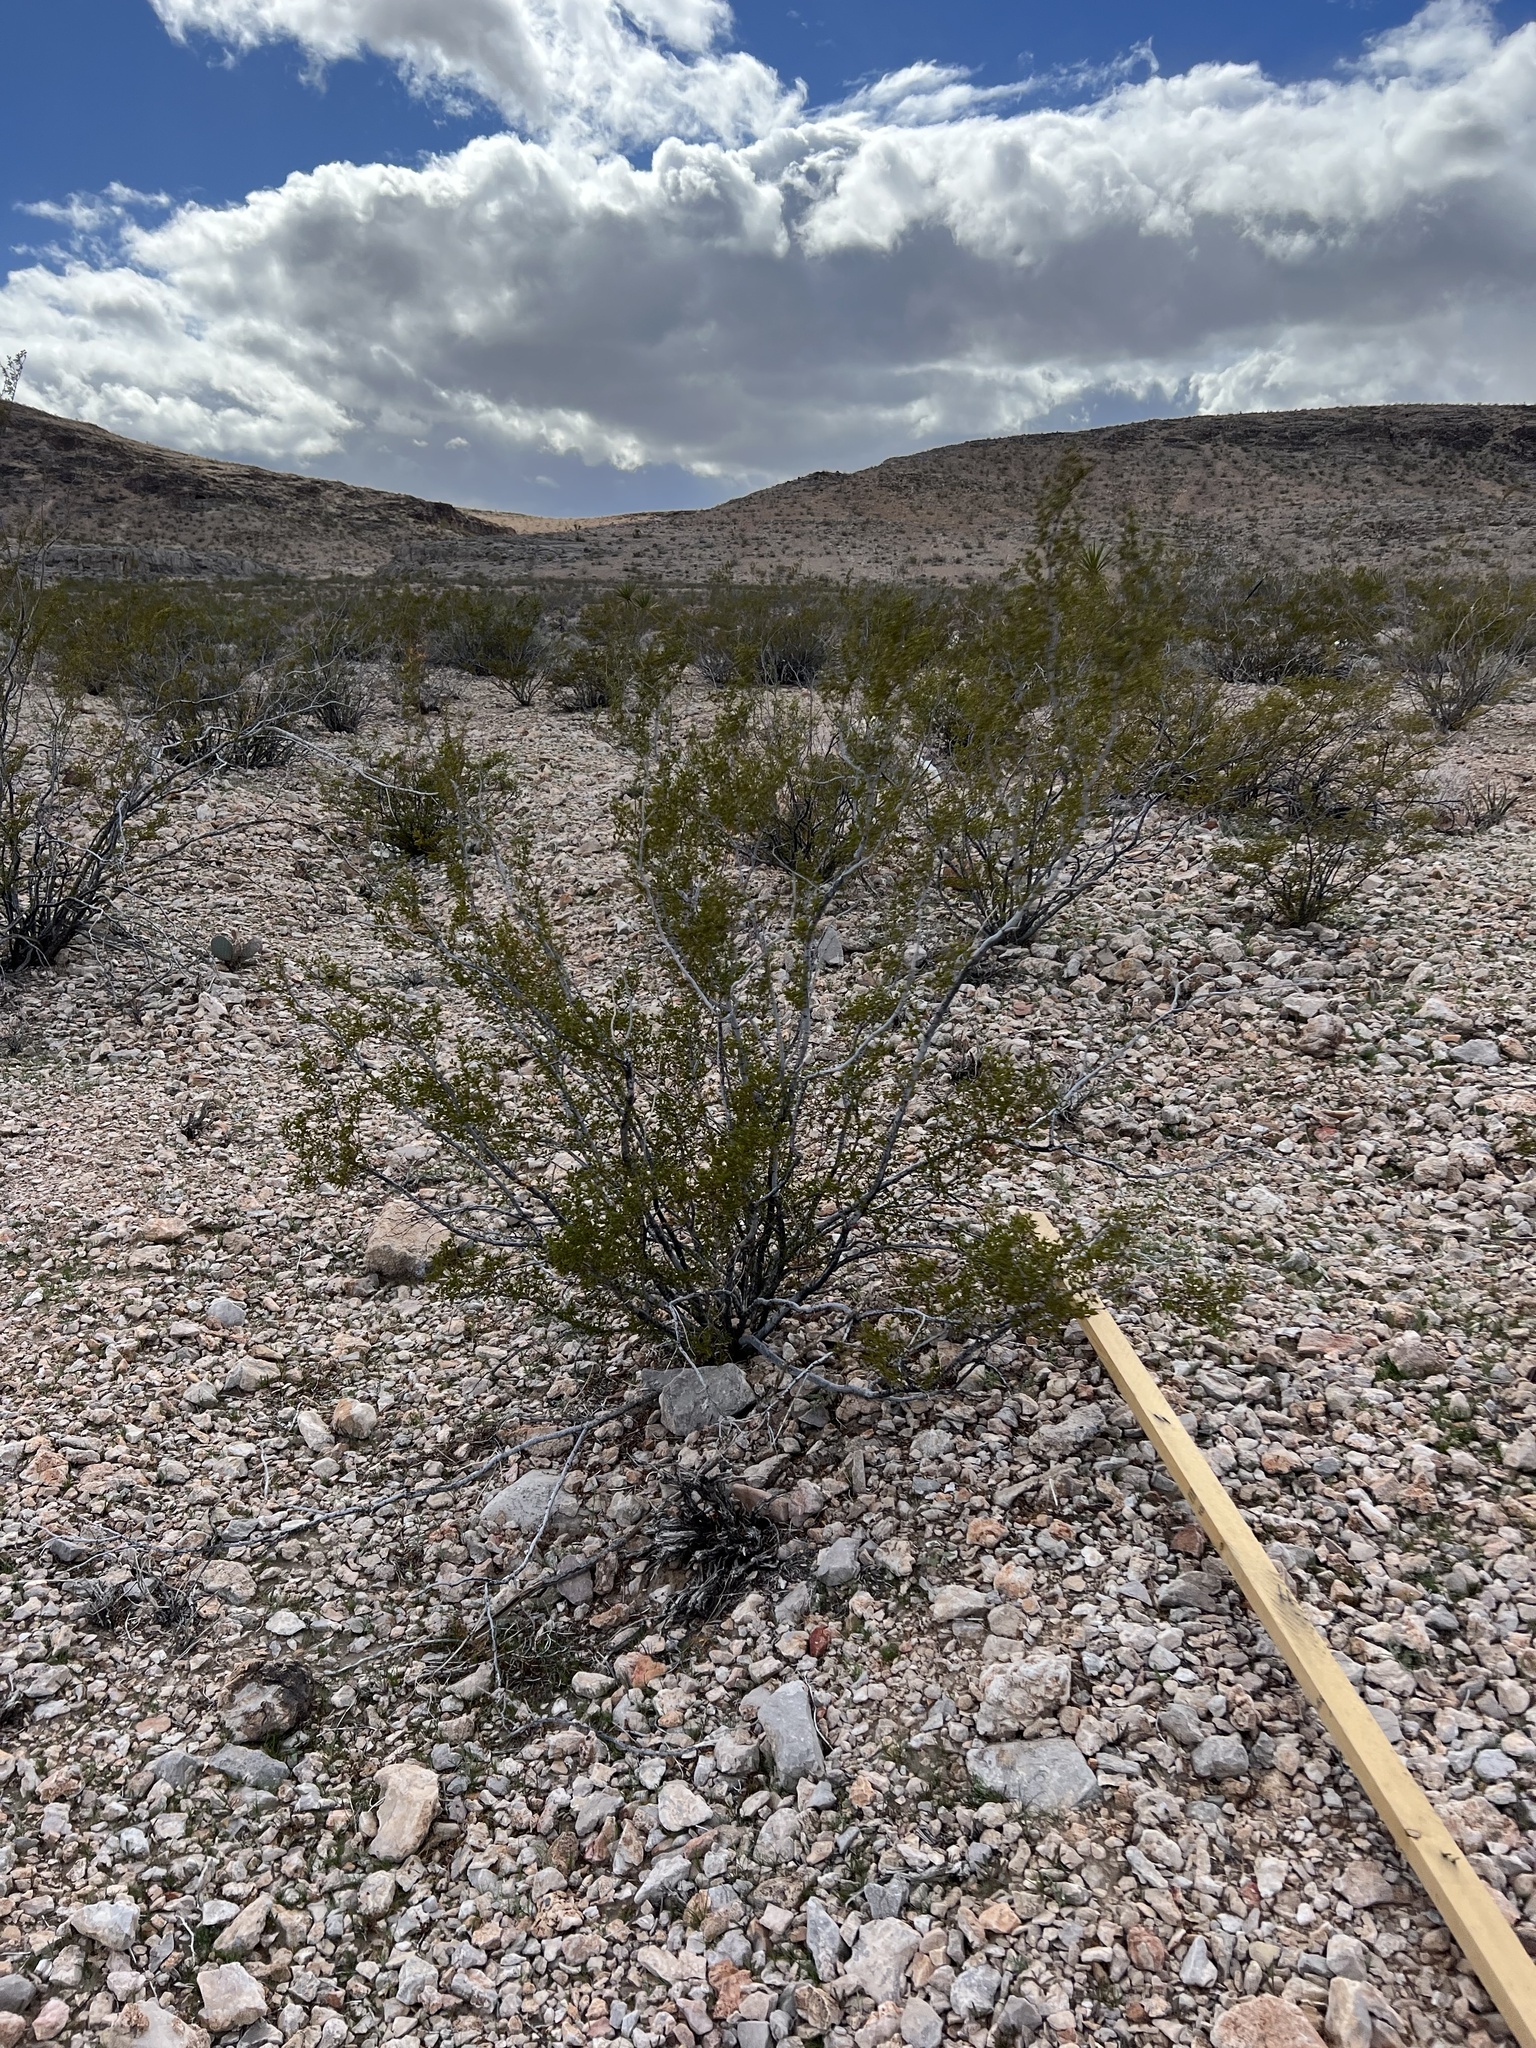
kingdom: Plantae
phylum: Tracheophyta
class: Magnoliopsida
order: Zygophyllales
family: Zygophyllaceae
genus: Larrea
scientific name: Larrea tridentata
